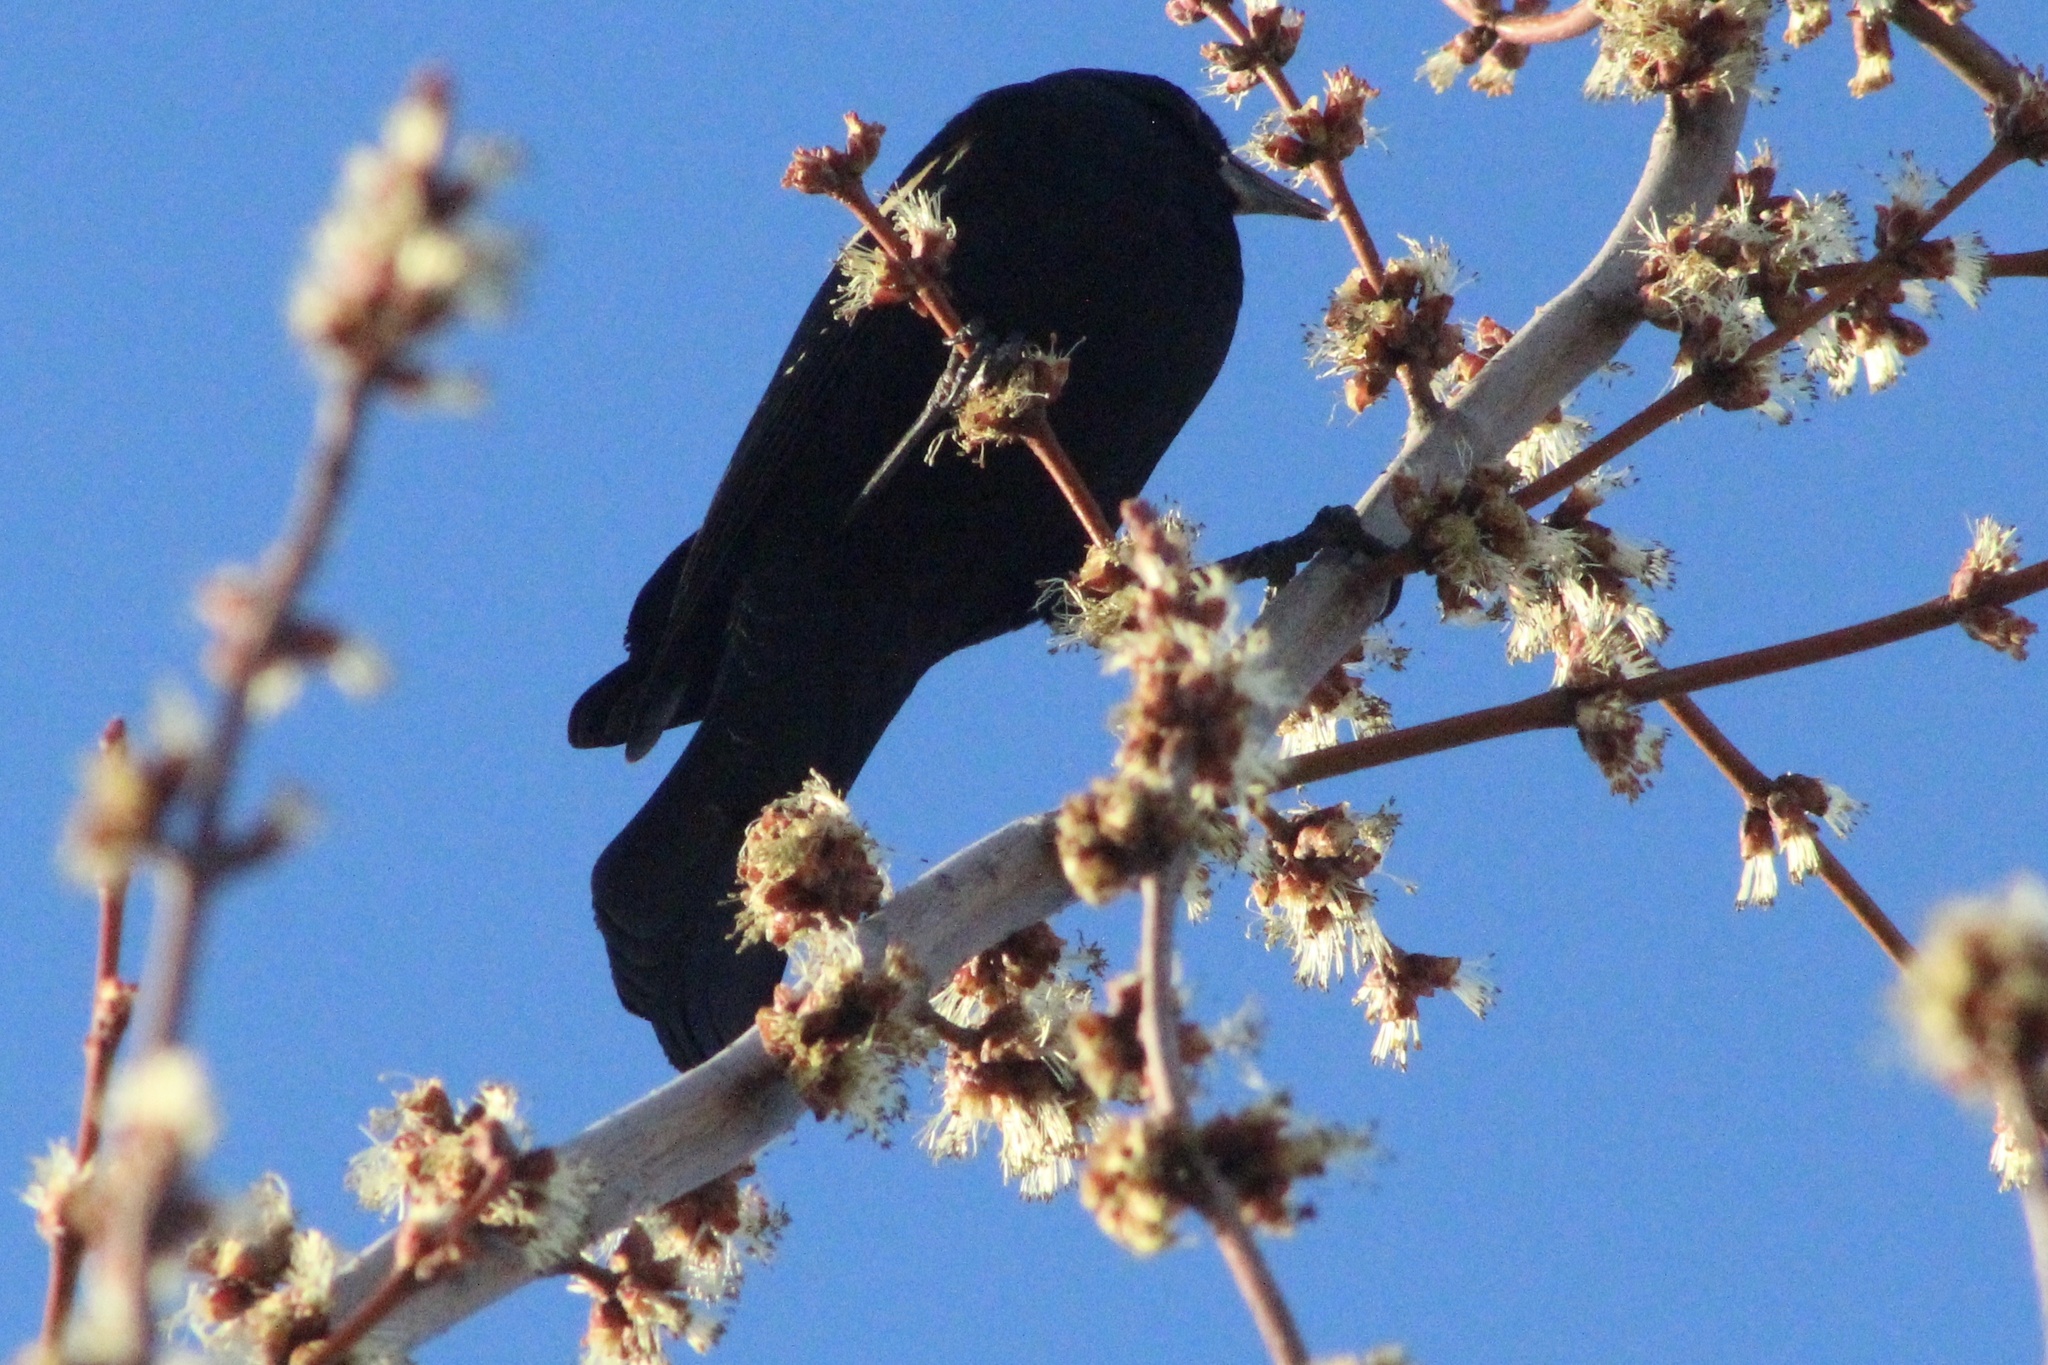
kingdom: Animalia
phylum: Chordata
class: Aves
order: Passeriformes
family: Icteridae
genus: Agelaius
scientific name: Agelaius phoeniceus
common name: Red-winged blackbird
